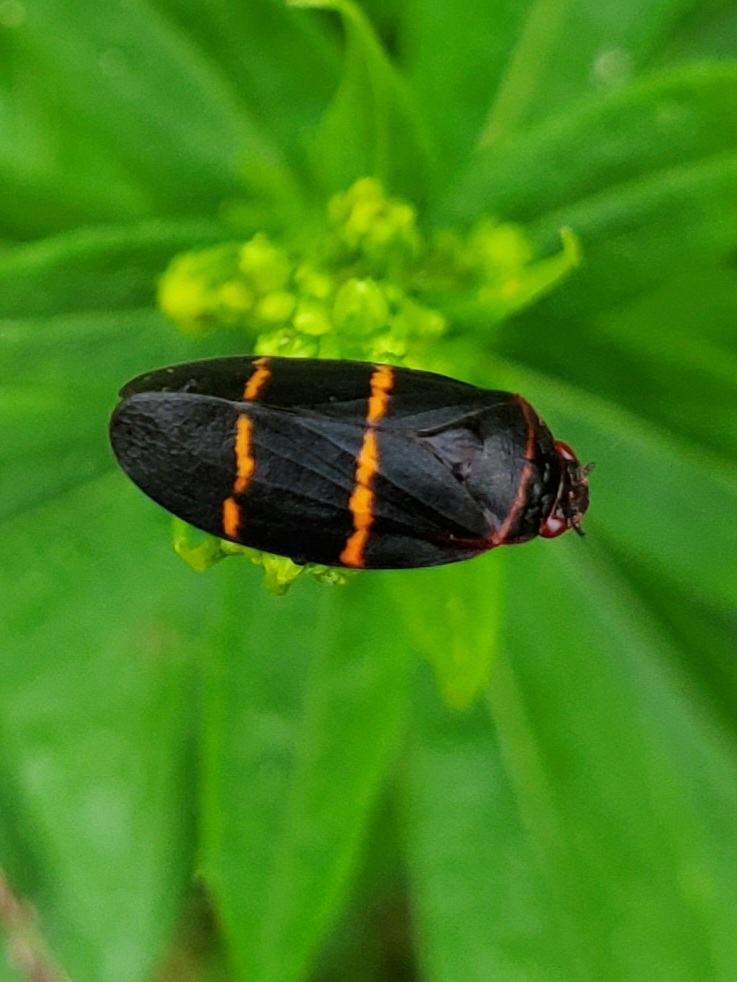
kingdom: Animalia
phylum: Arthropoda
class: Insecta
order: Hemiptera
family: Cercopidae
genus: Prosapia
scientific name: Prosapia bicincta
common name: Twolined spittlebug
